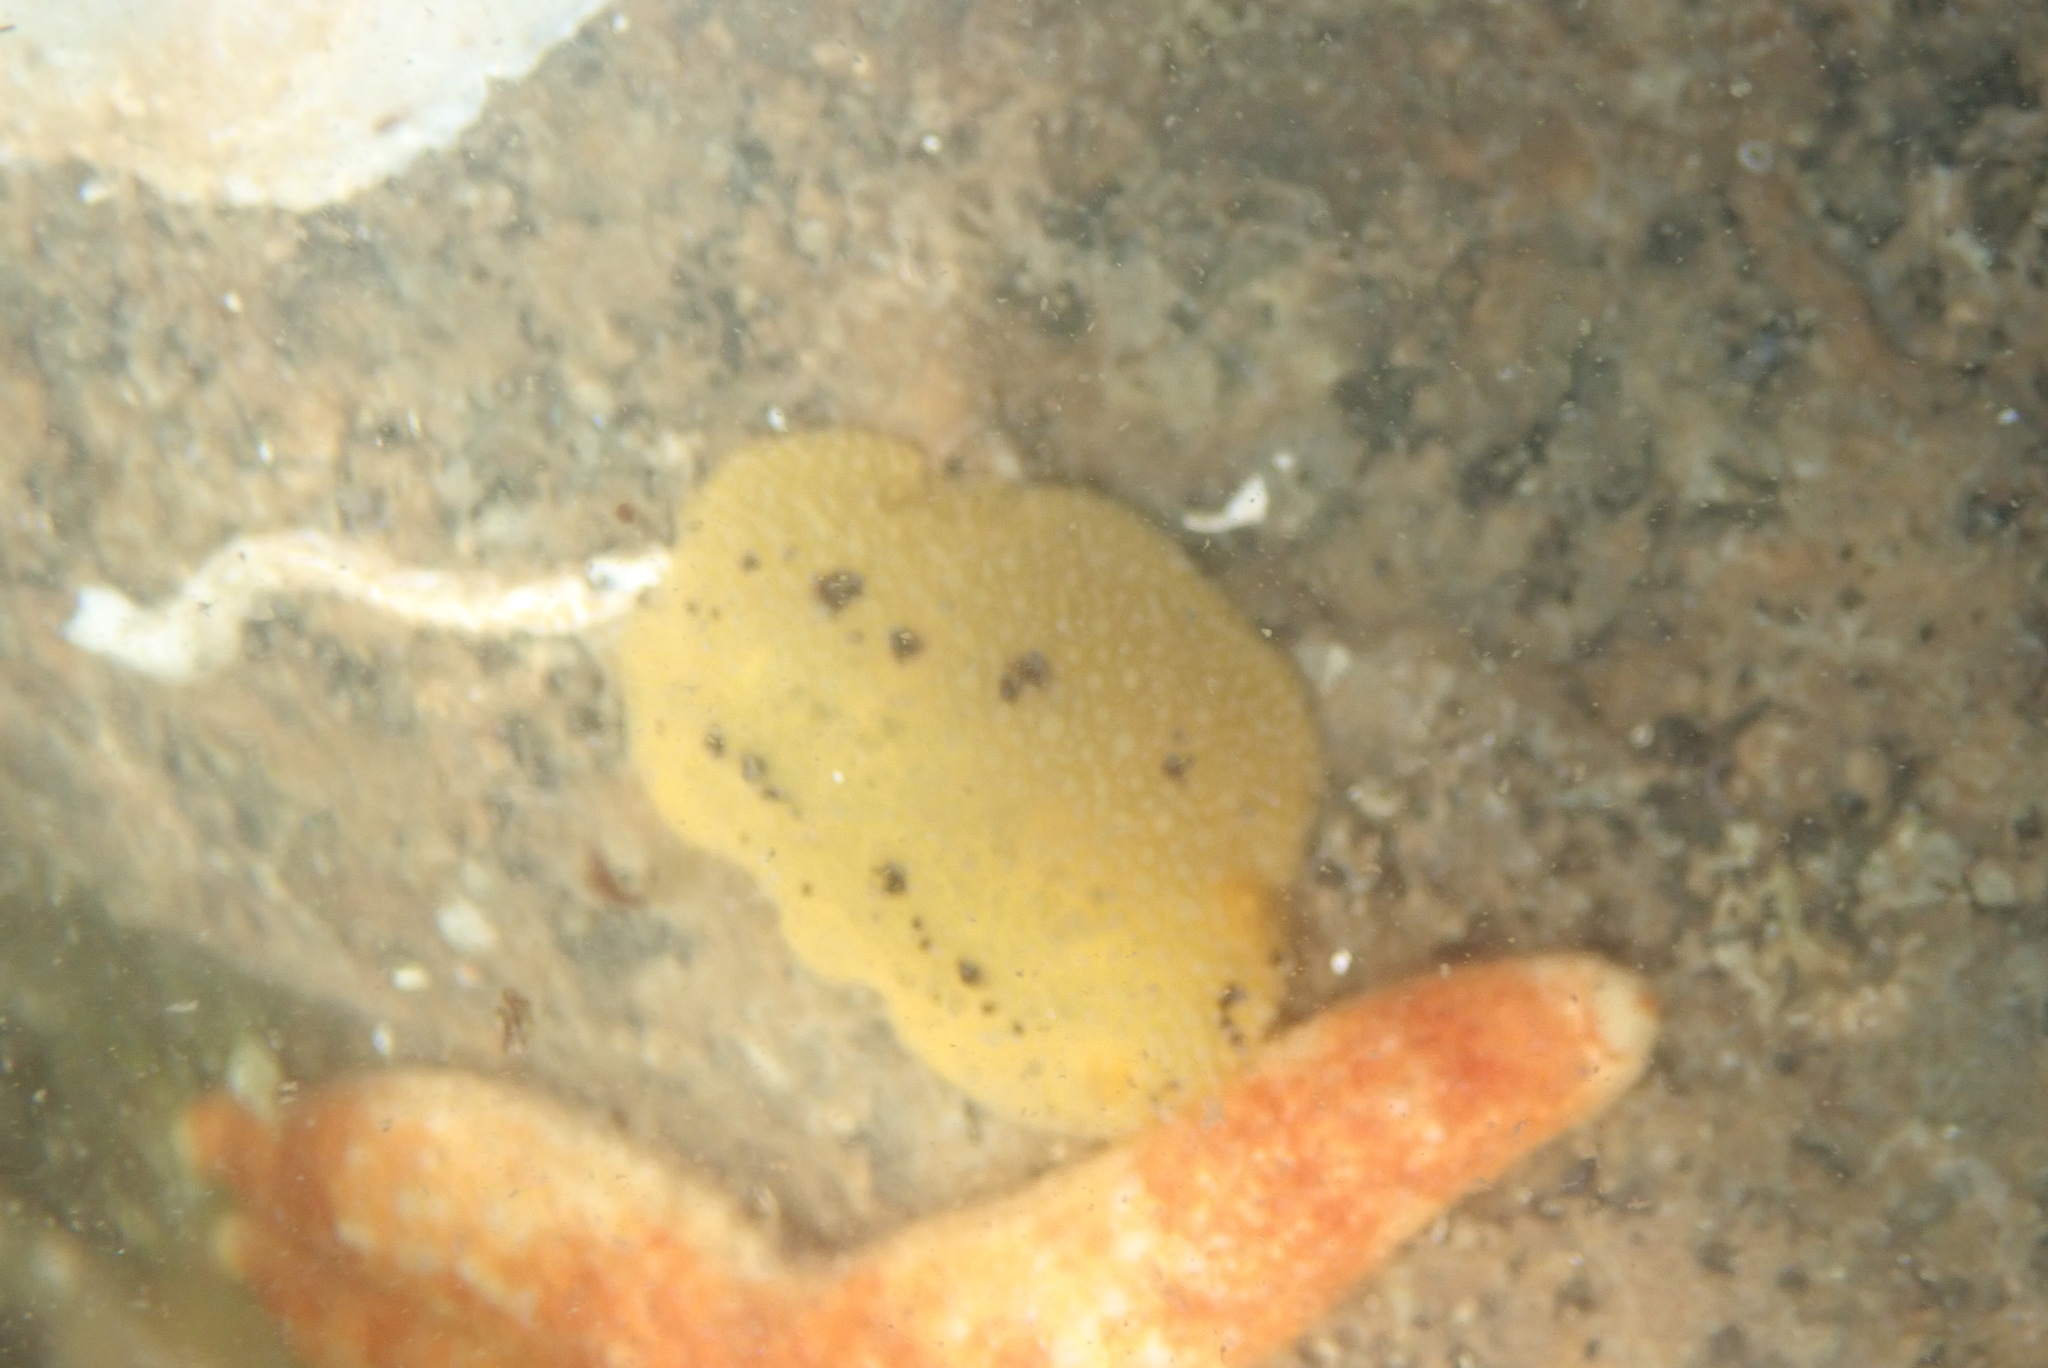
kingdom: Animalia
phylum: Mollusca
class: Gastropoda
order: Nudibranchia
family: Dorididae
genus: Doris
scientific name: Doris montereyensis
